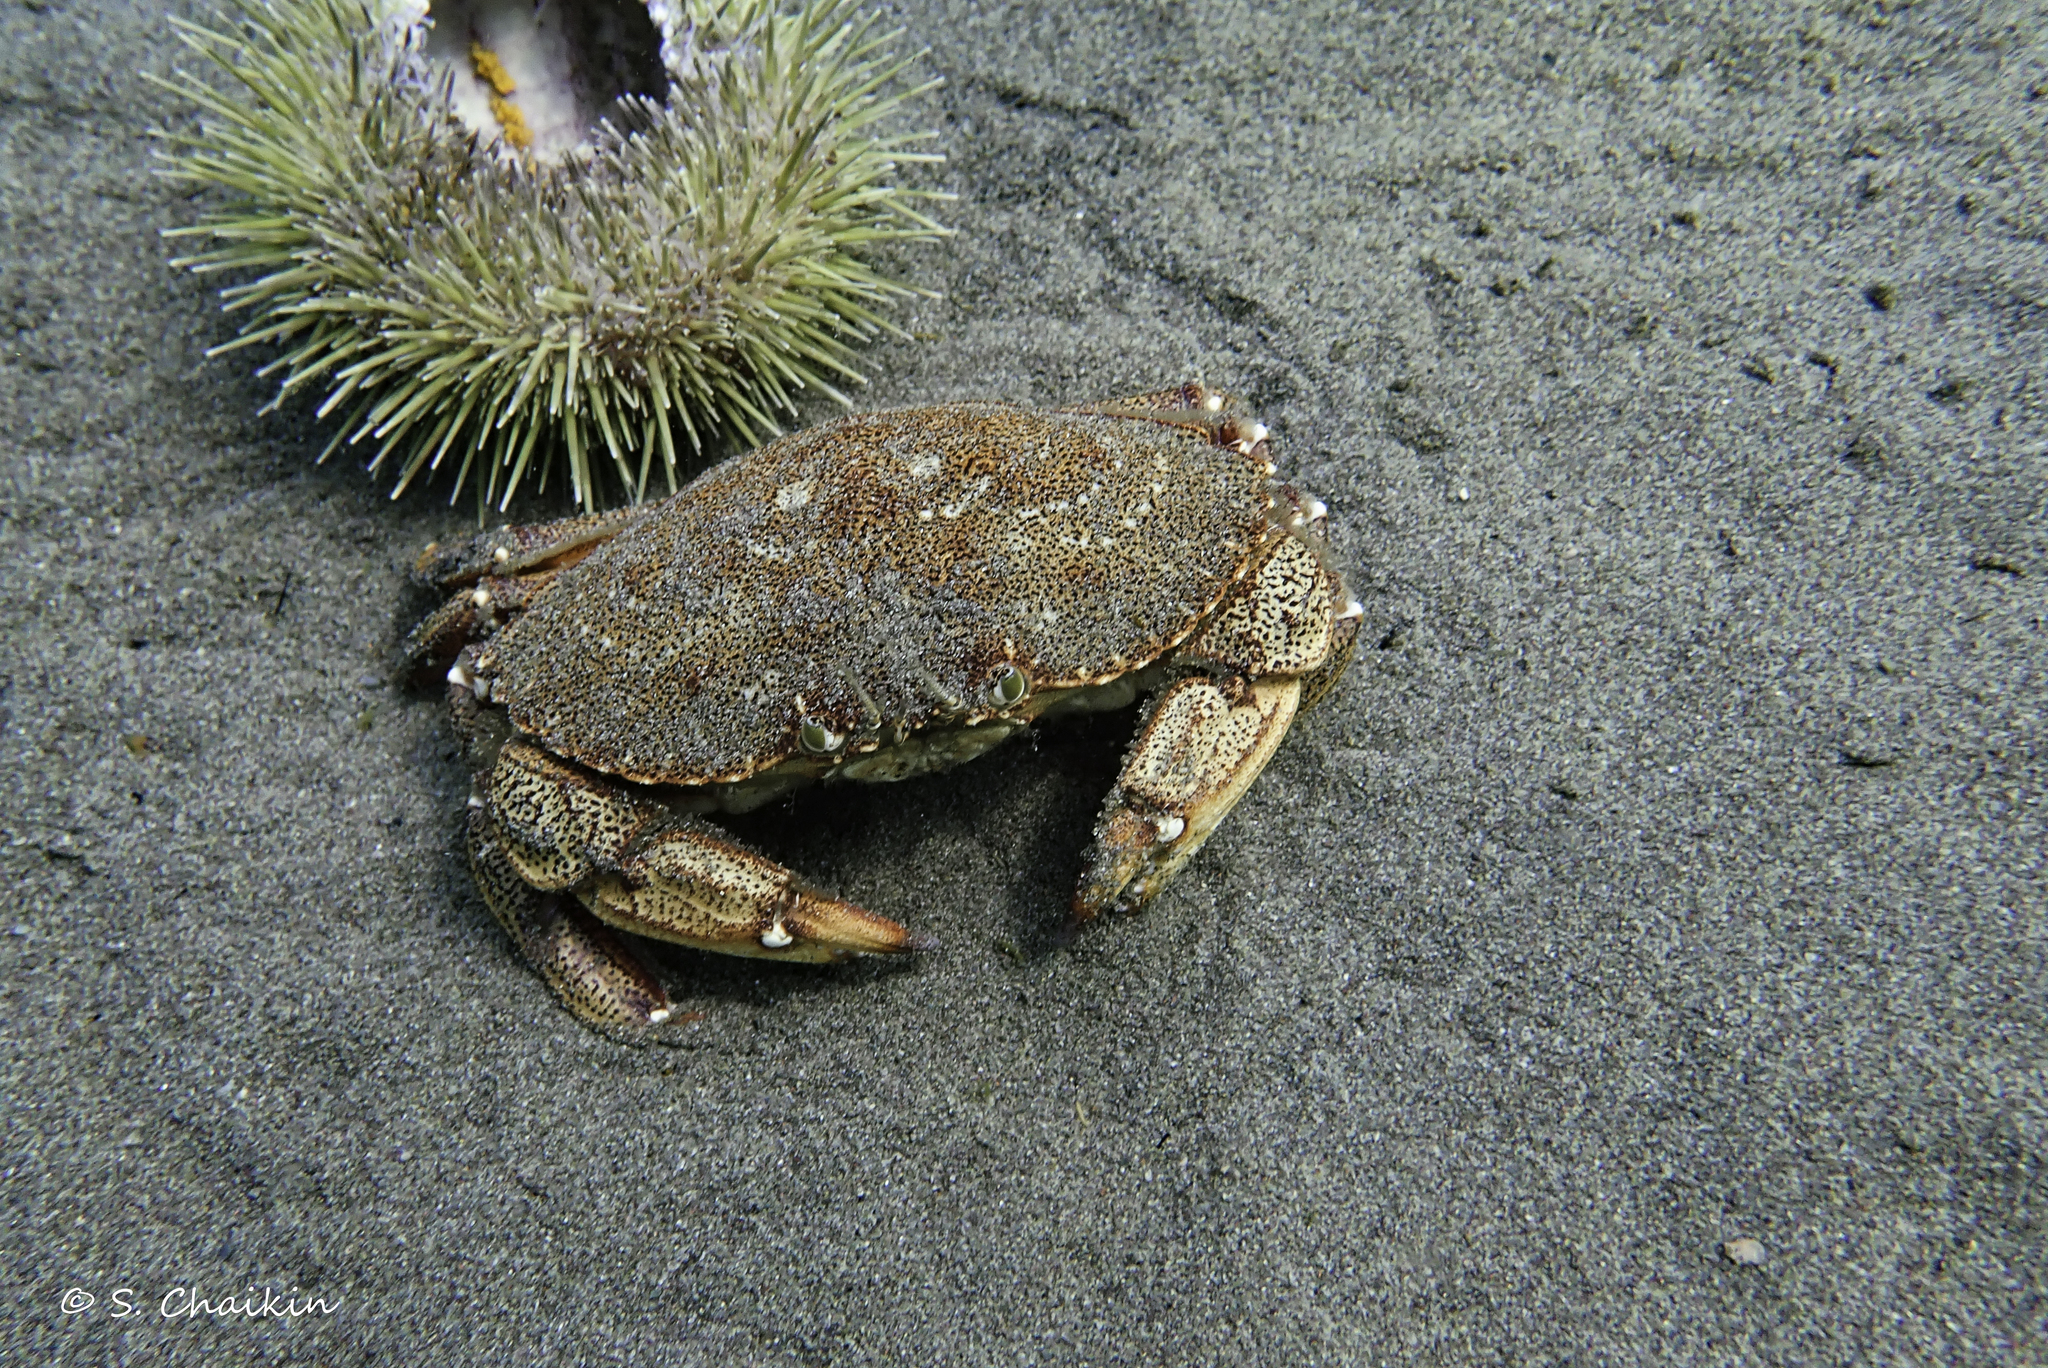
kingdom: Animalia
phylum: Arthropoda
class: Malacostraca
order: Decapoda
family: Cancridae
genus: Cancer
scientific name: Cancer irroratus
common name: Atlantic rock crab
